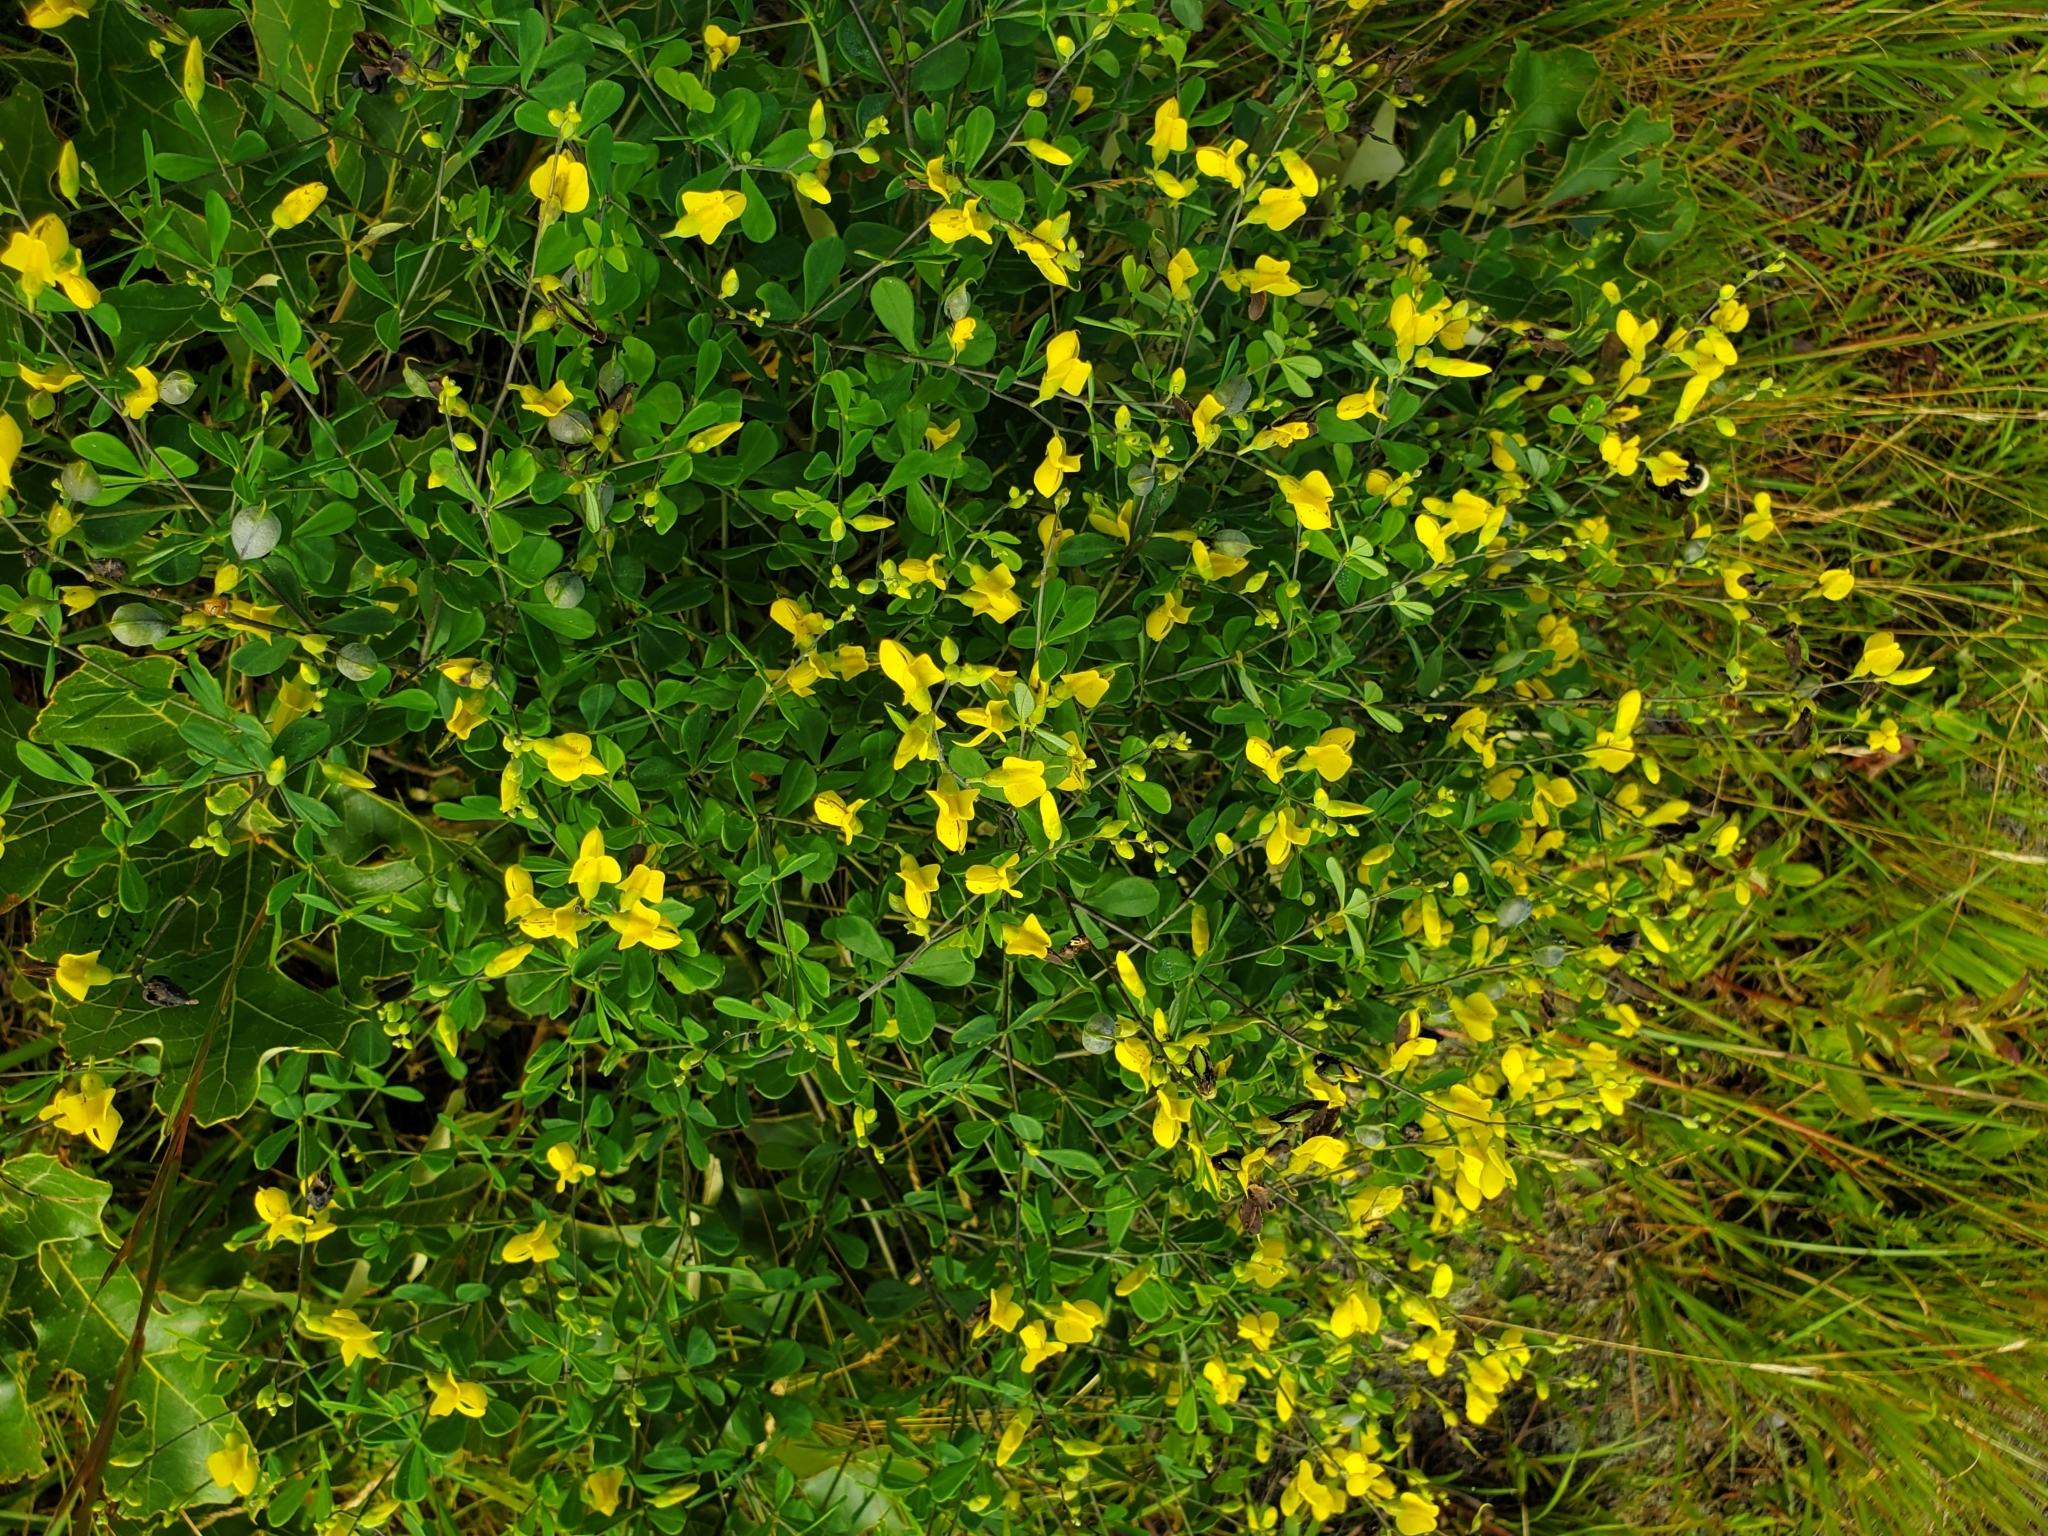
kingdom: Plantae
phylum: Tracheophyta
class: Magnoliopsida
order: Fabales
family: Fabaceae
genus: Baptisia
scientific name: Baptisia tinctoria
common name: Wild indigo
